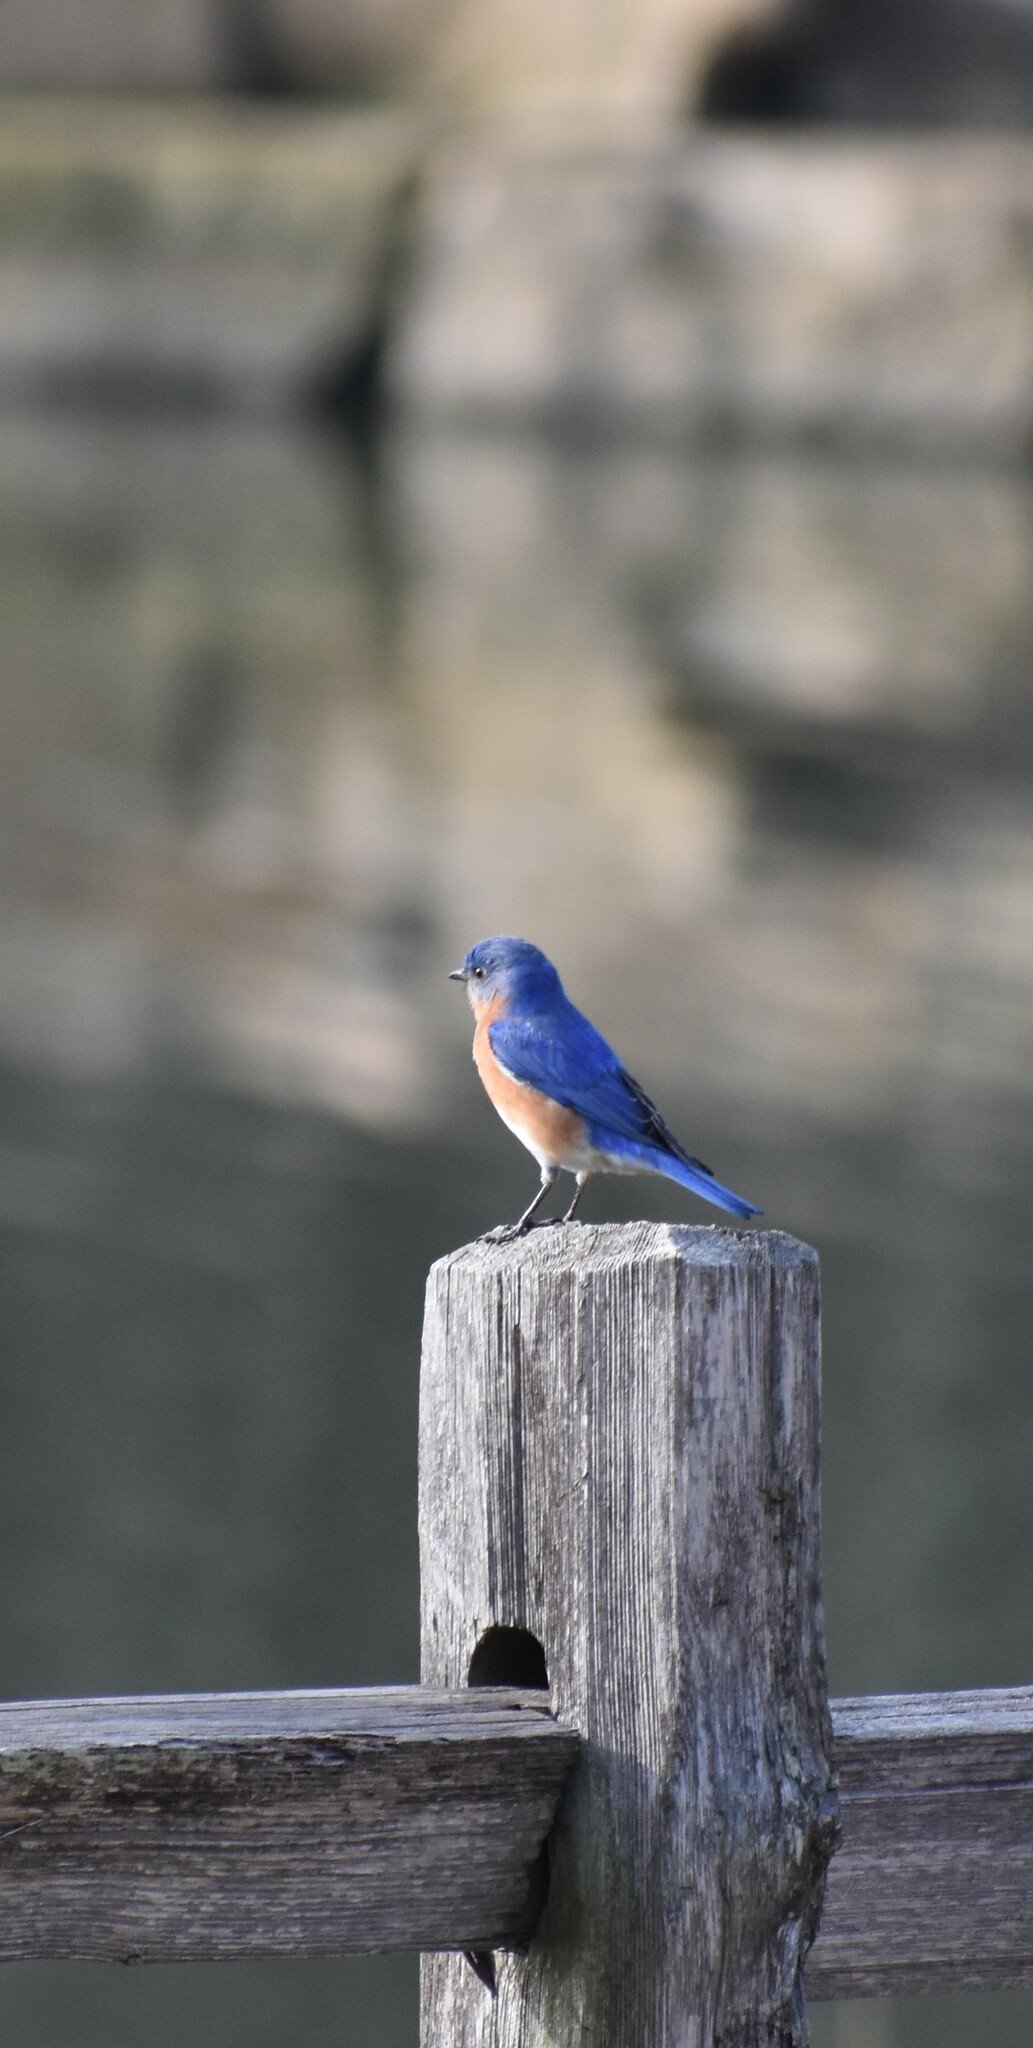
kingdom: Animalia
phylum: Chordata
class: Aves
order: Passeriformes
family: Turdidae
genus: Sialia
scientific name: Sialia sialis
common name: Eastern bluebird
